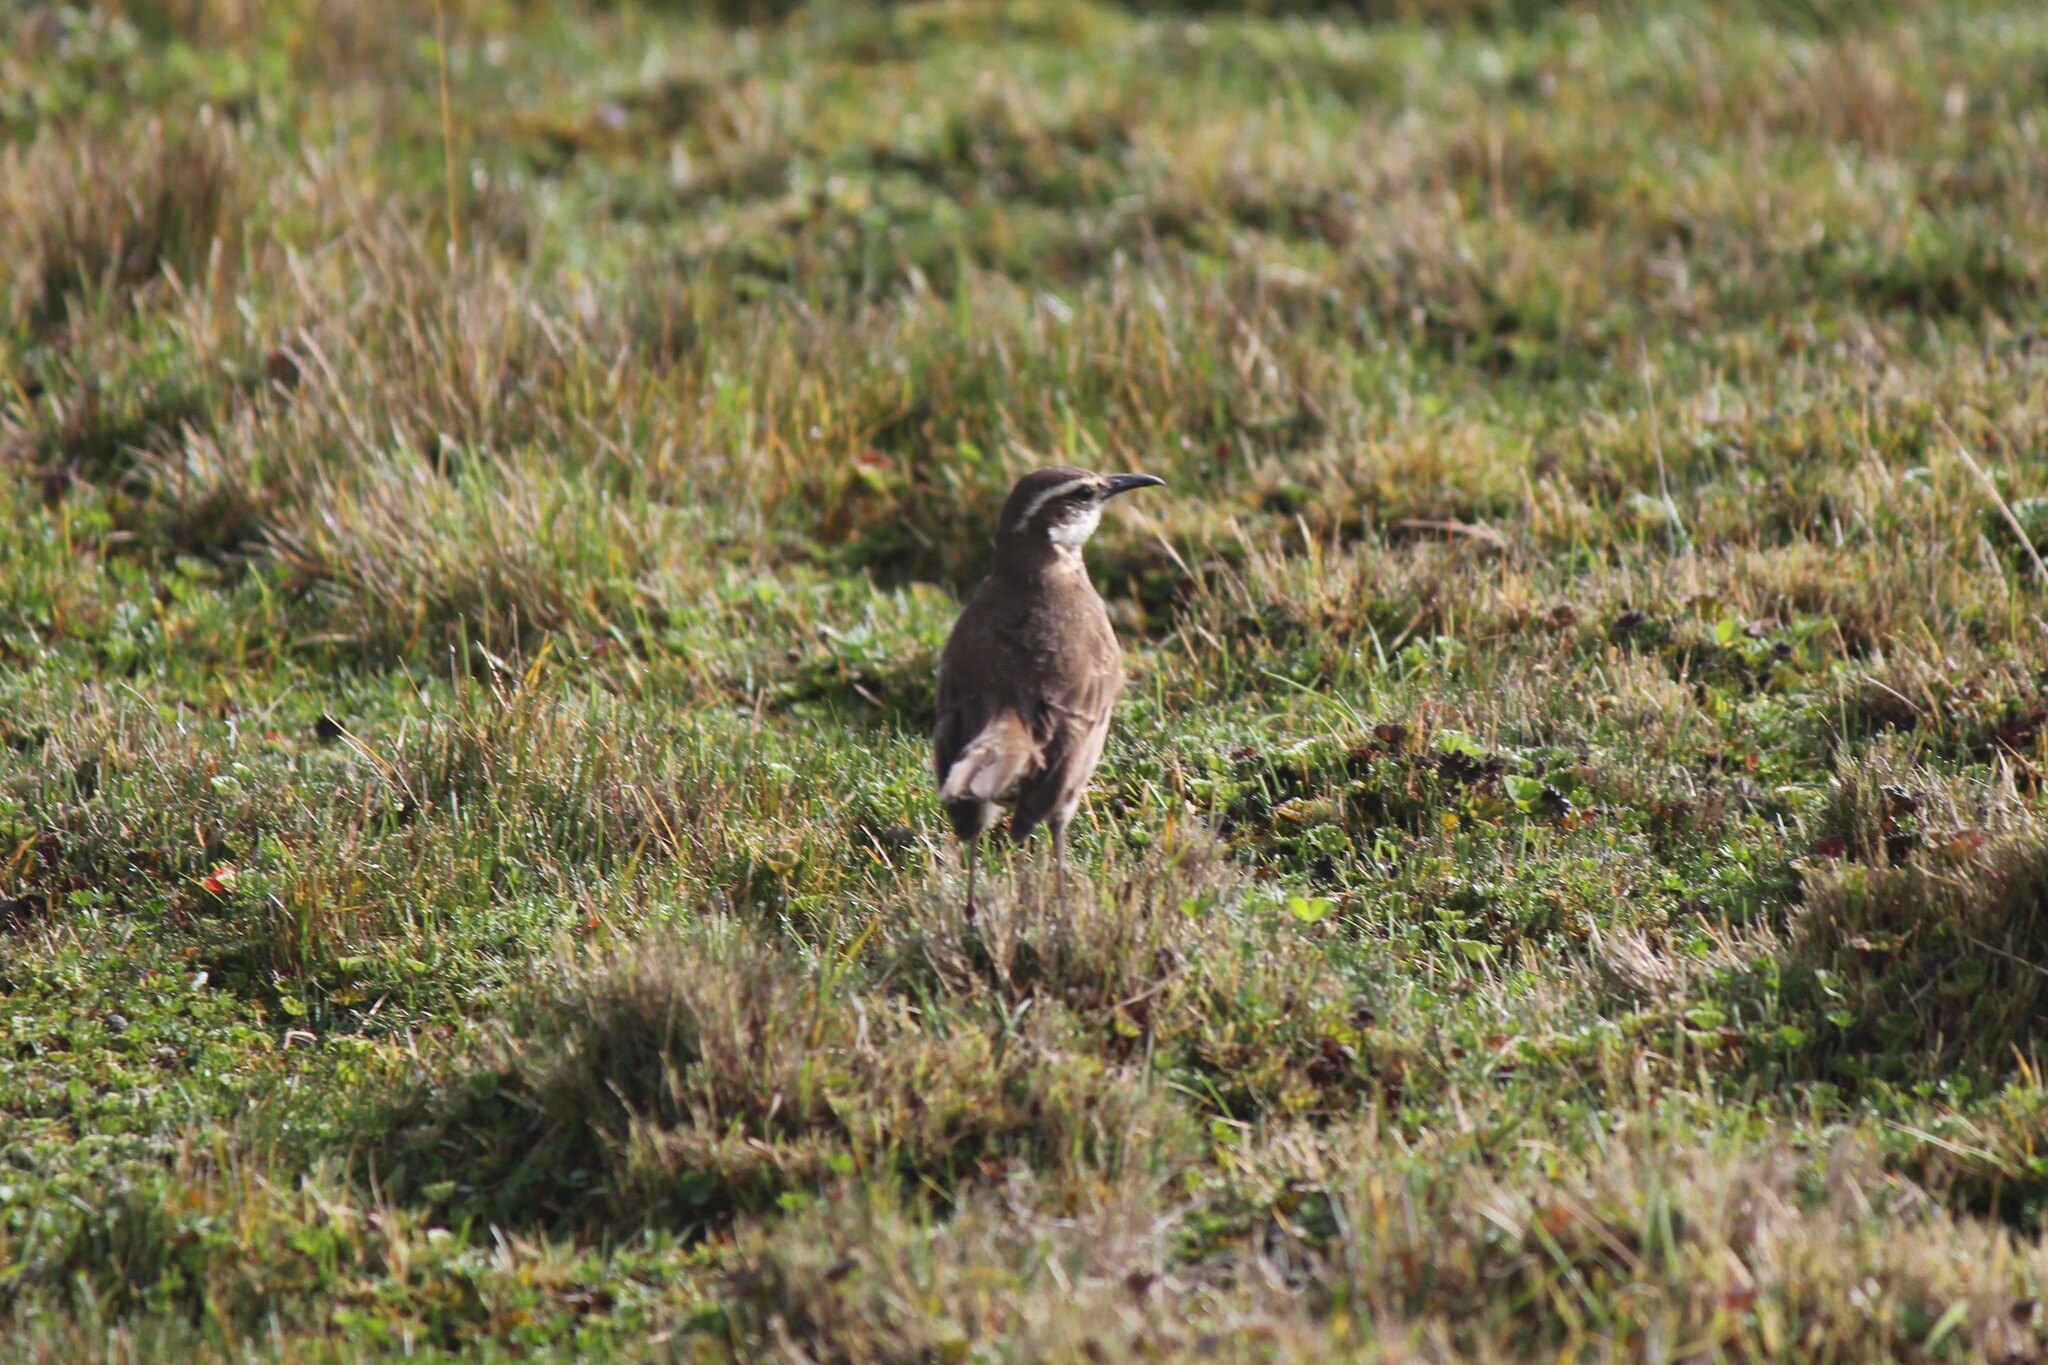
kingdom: Animalia
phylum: Chordata
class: Aves
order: Passeriformes
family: Furnariidae
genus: Cinclodes
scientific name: Cinclodes excelsior
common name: Stout-billed cinclodes
